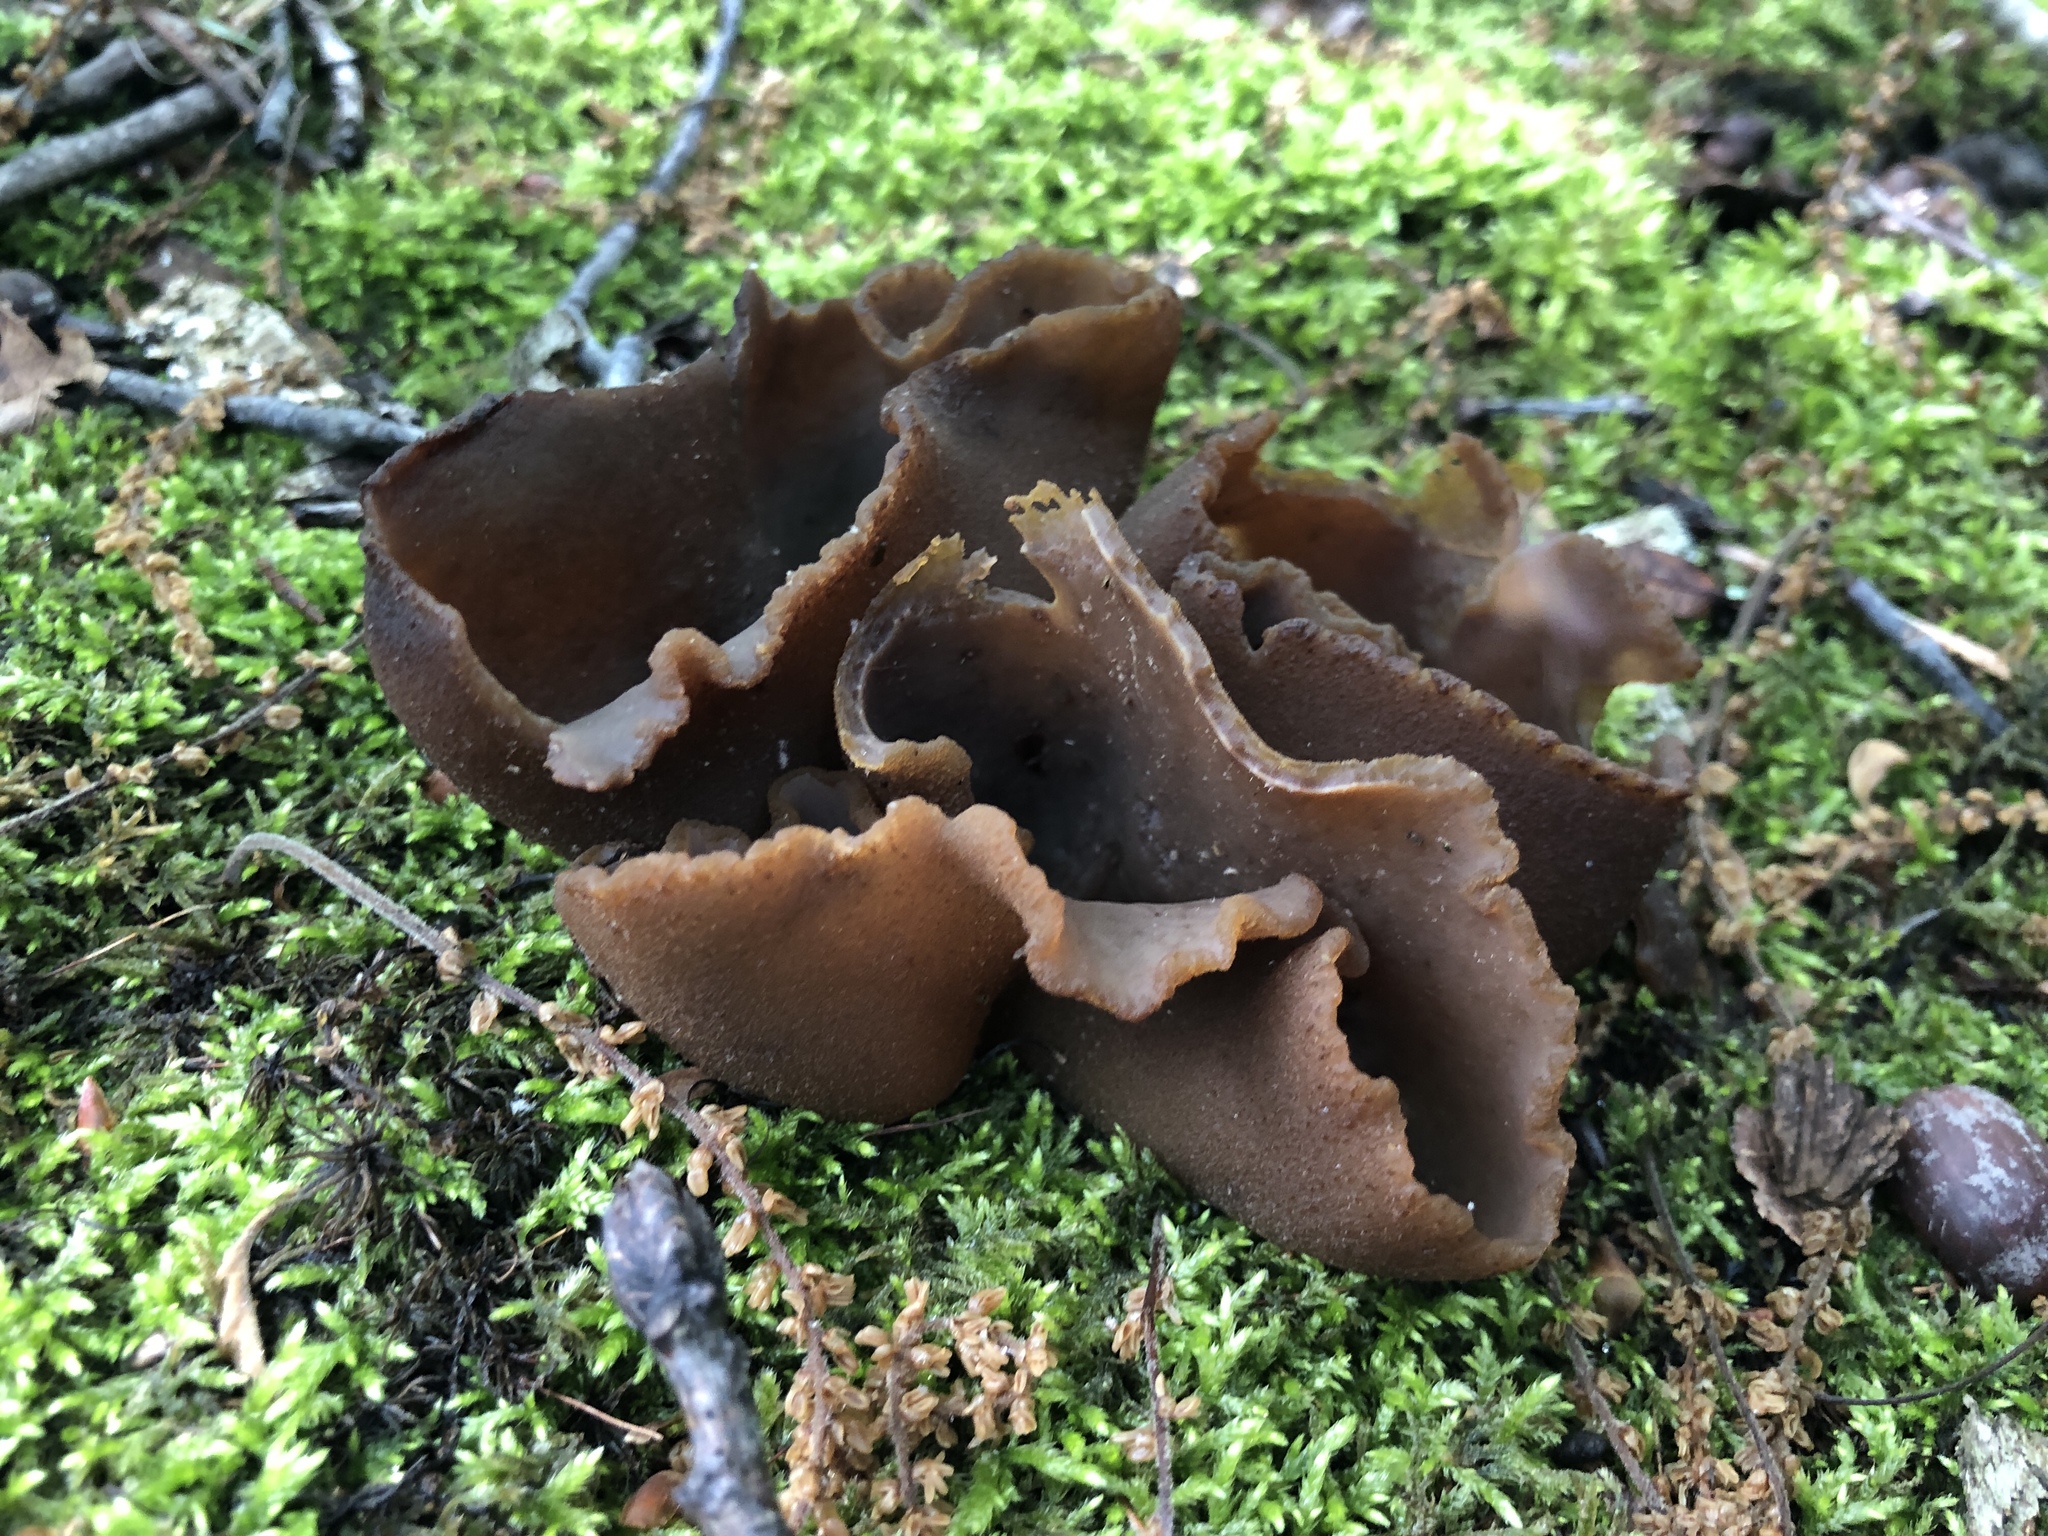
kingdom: Fungi
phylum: Ascomycota
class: Pezizomycetes
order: Pezizales
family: Pezizaceae
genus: Phylloscypha
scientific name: Phylloscypha phyllogena
